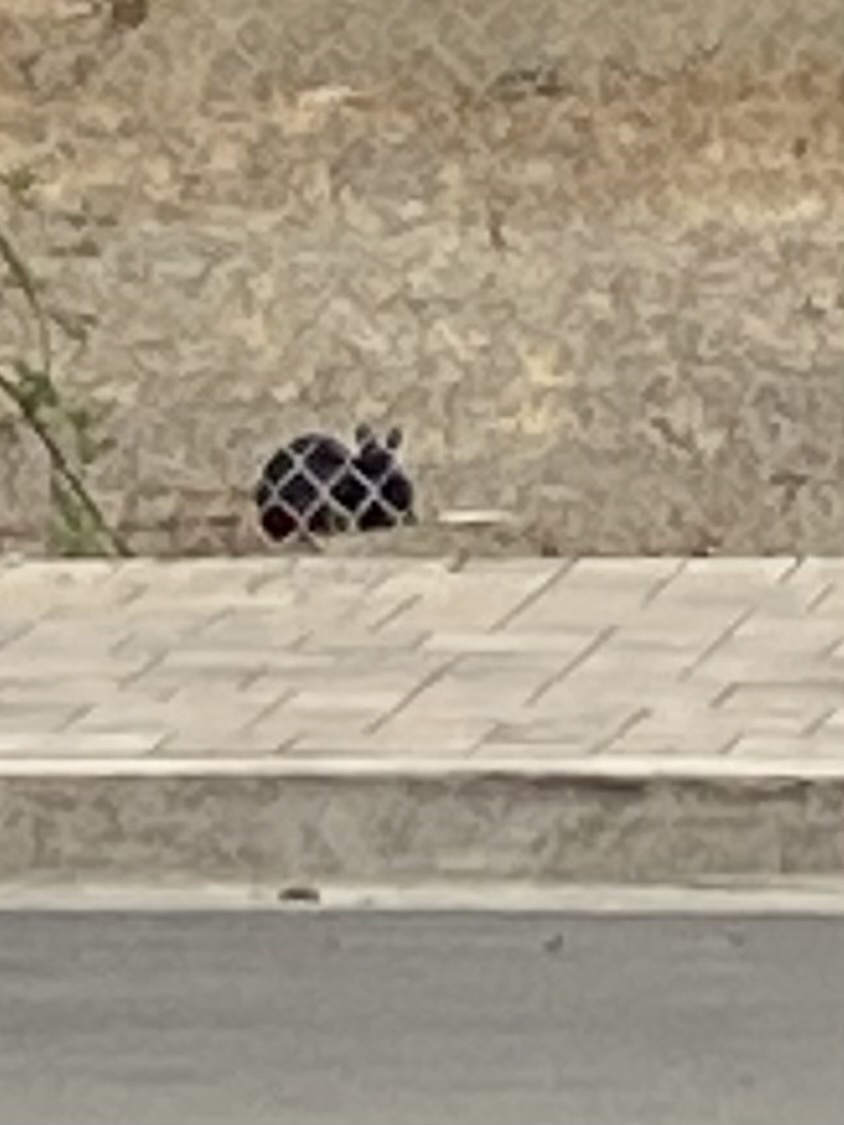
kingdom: Animalia
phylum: Chordata
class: Mammalia
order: Lagomorpha
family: Leporidae
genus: Oryctolagus
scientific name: Oryctolagus cuniculus
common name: European rabbit
